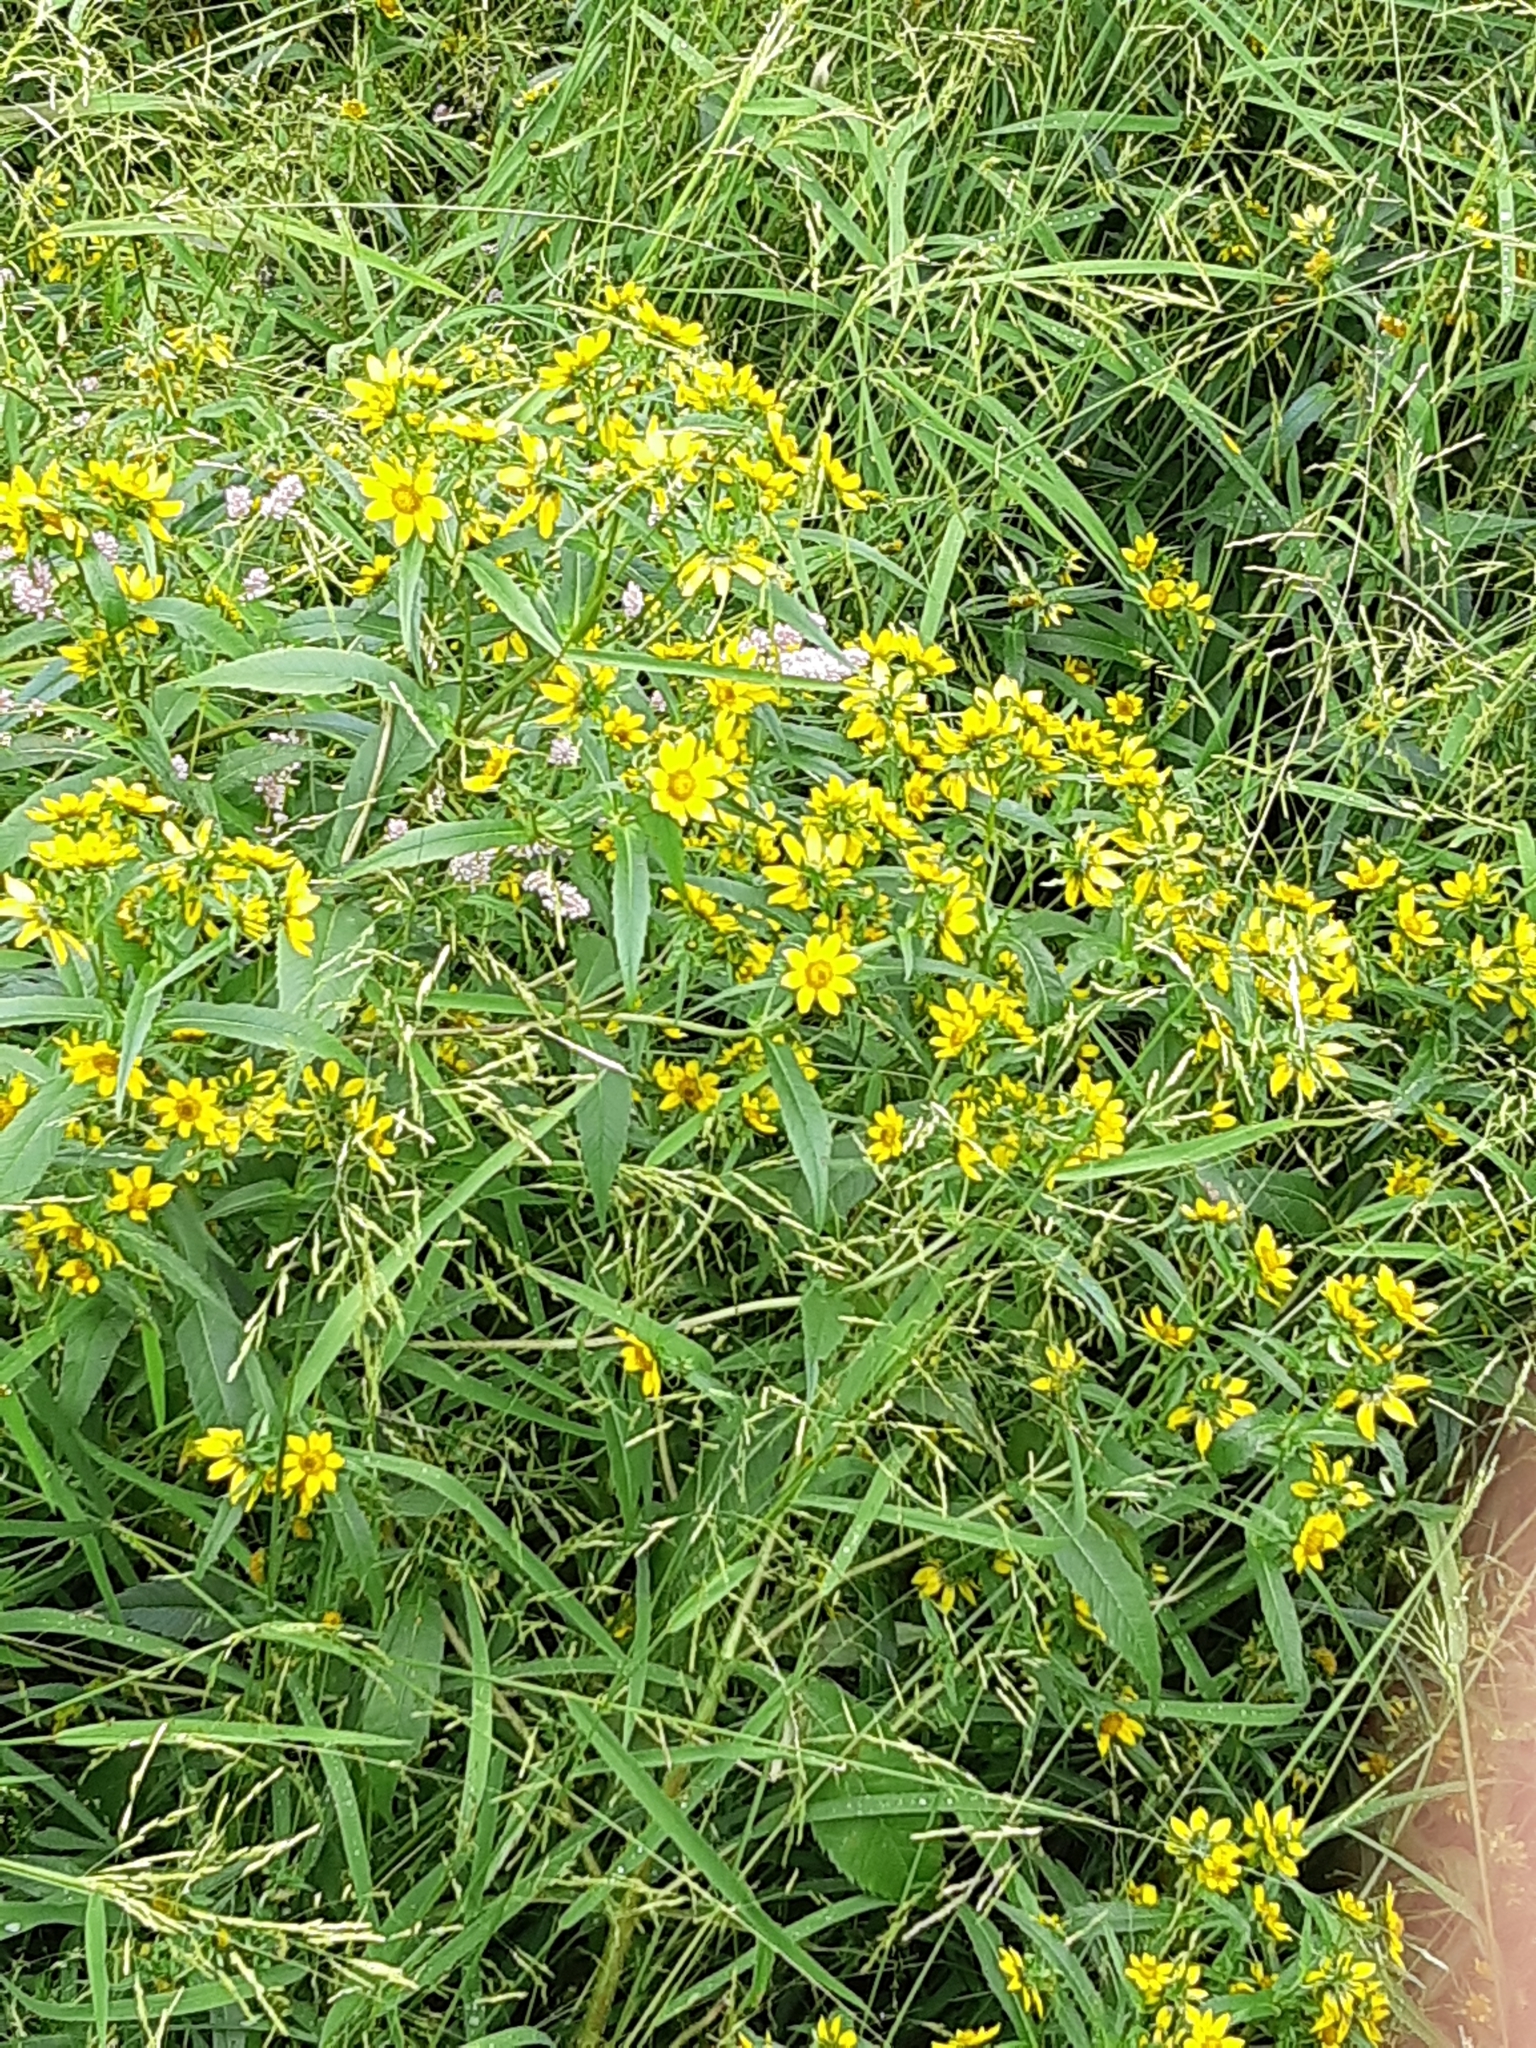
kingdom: Plantae
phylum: Tracheophyta
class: Magnoliopsida
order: Asterales
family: Asteraceae
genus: Bidens
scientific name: Bidens cernua
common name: Nodding bur-marigold
